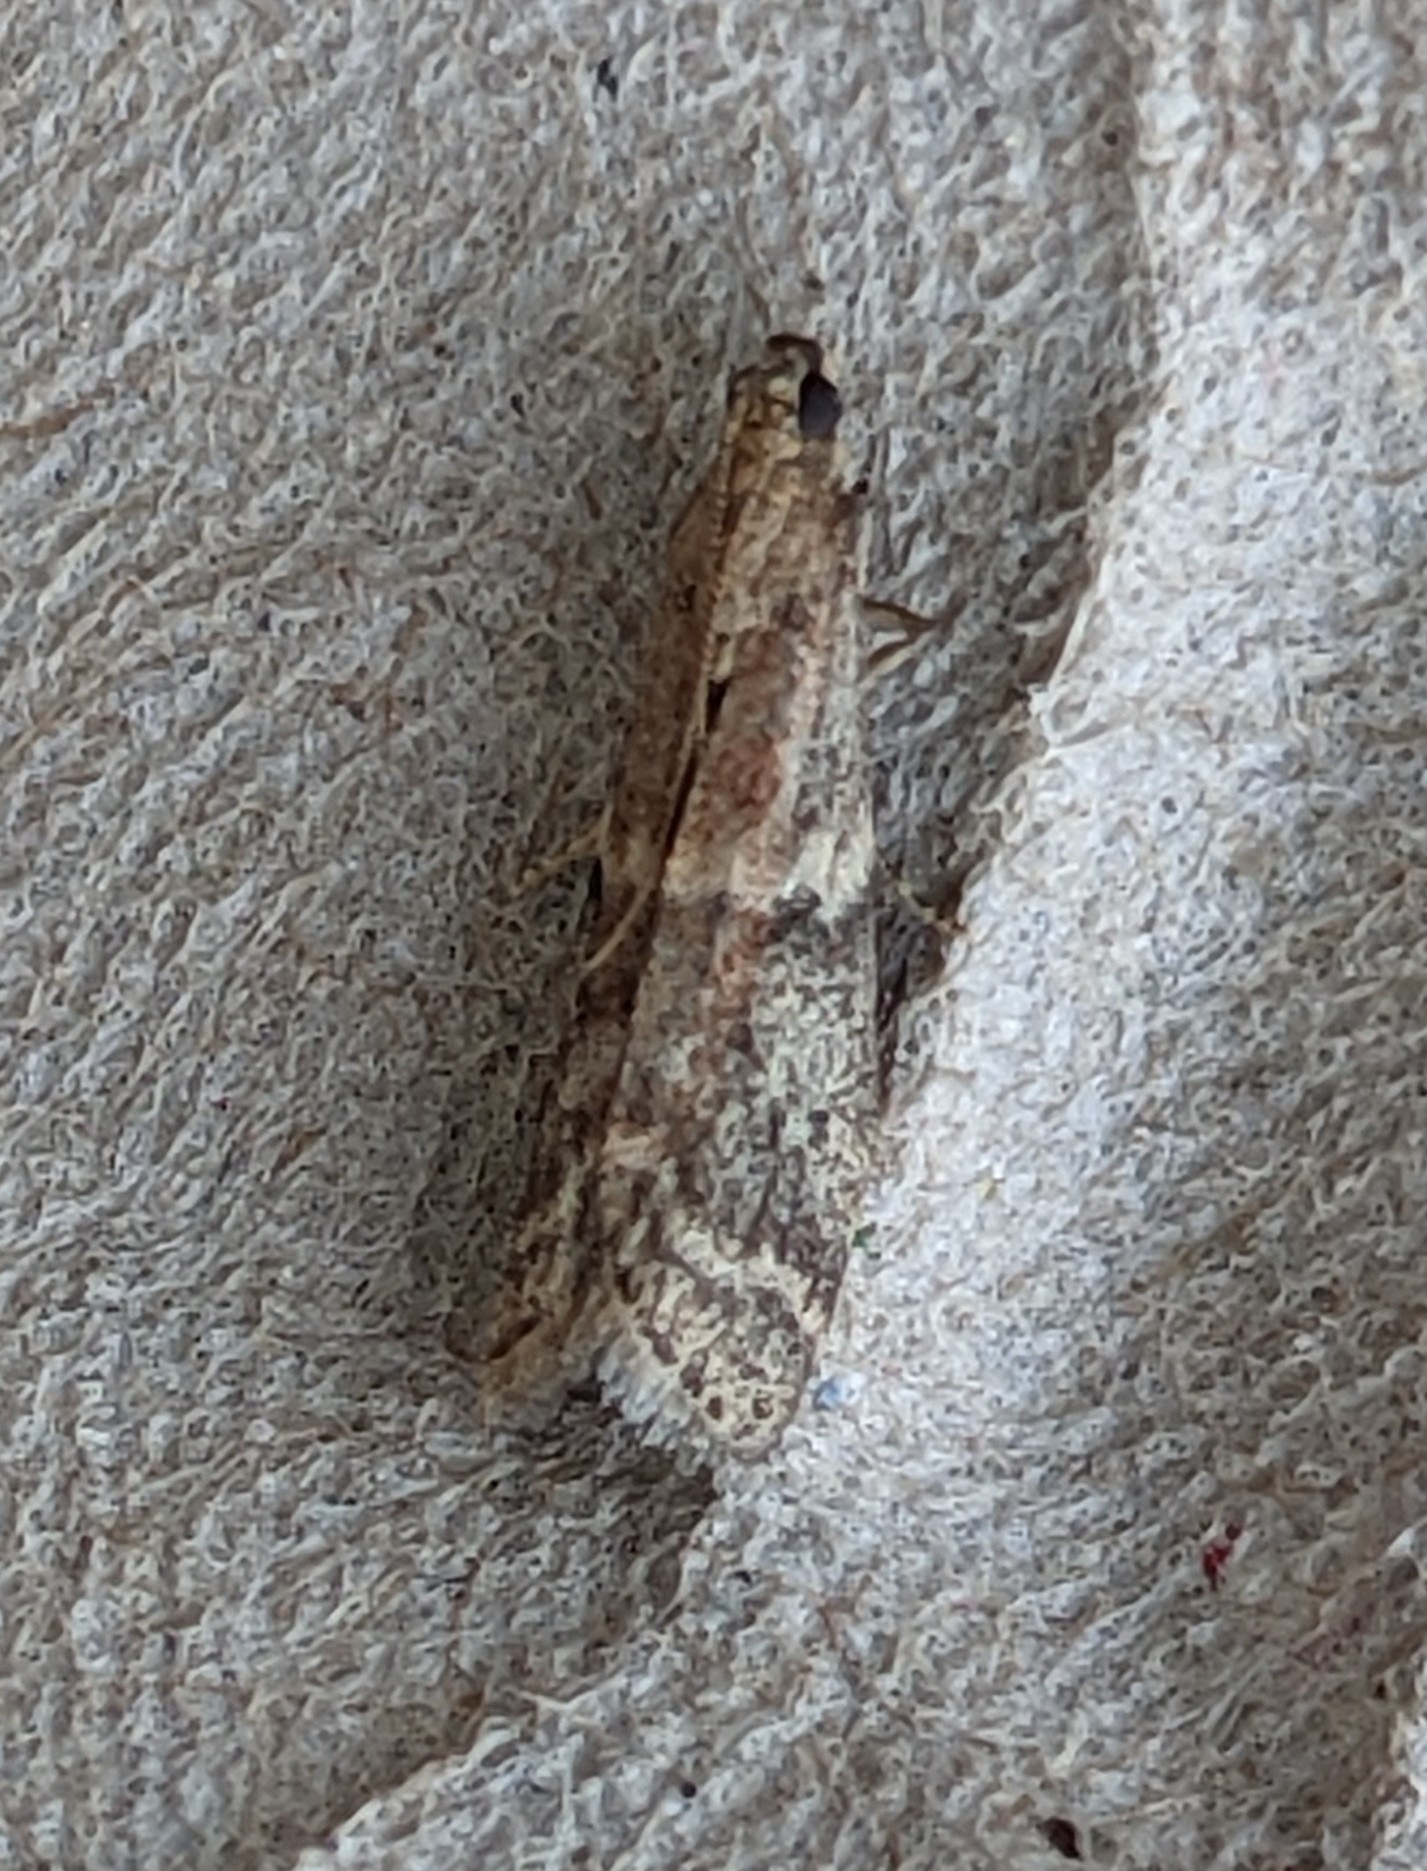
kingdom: Animalia
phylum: Arthropoda
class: Insecta
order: Lepidoptera
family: Pyralidae
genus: Ephestia
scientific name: Ephestia elutella
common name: Cacao moth
